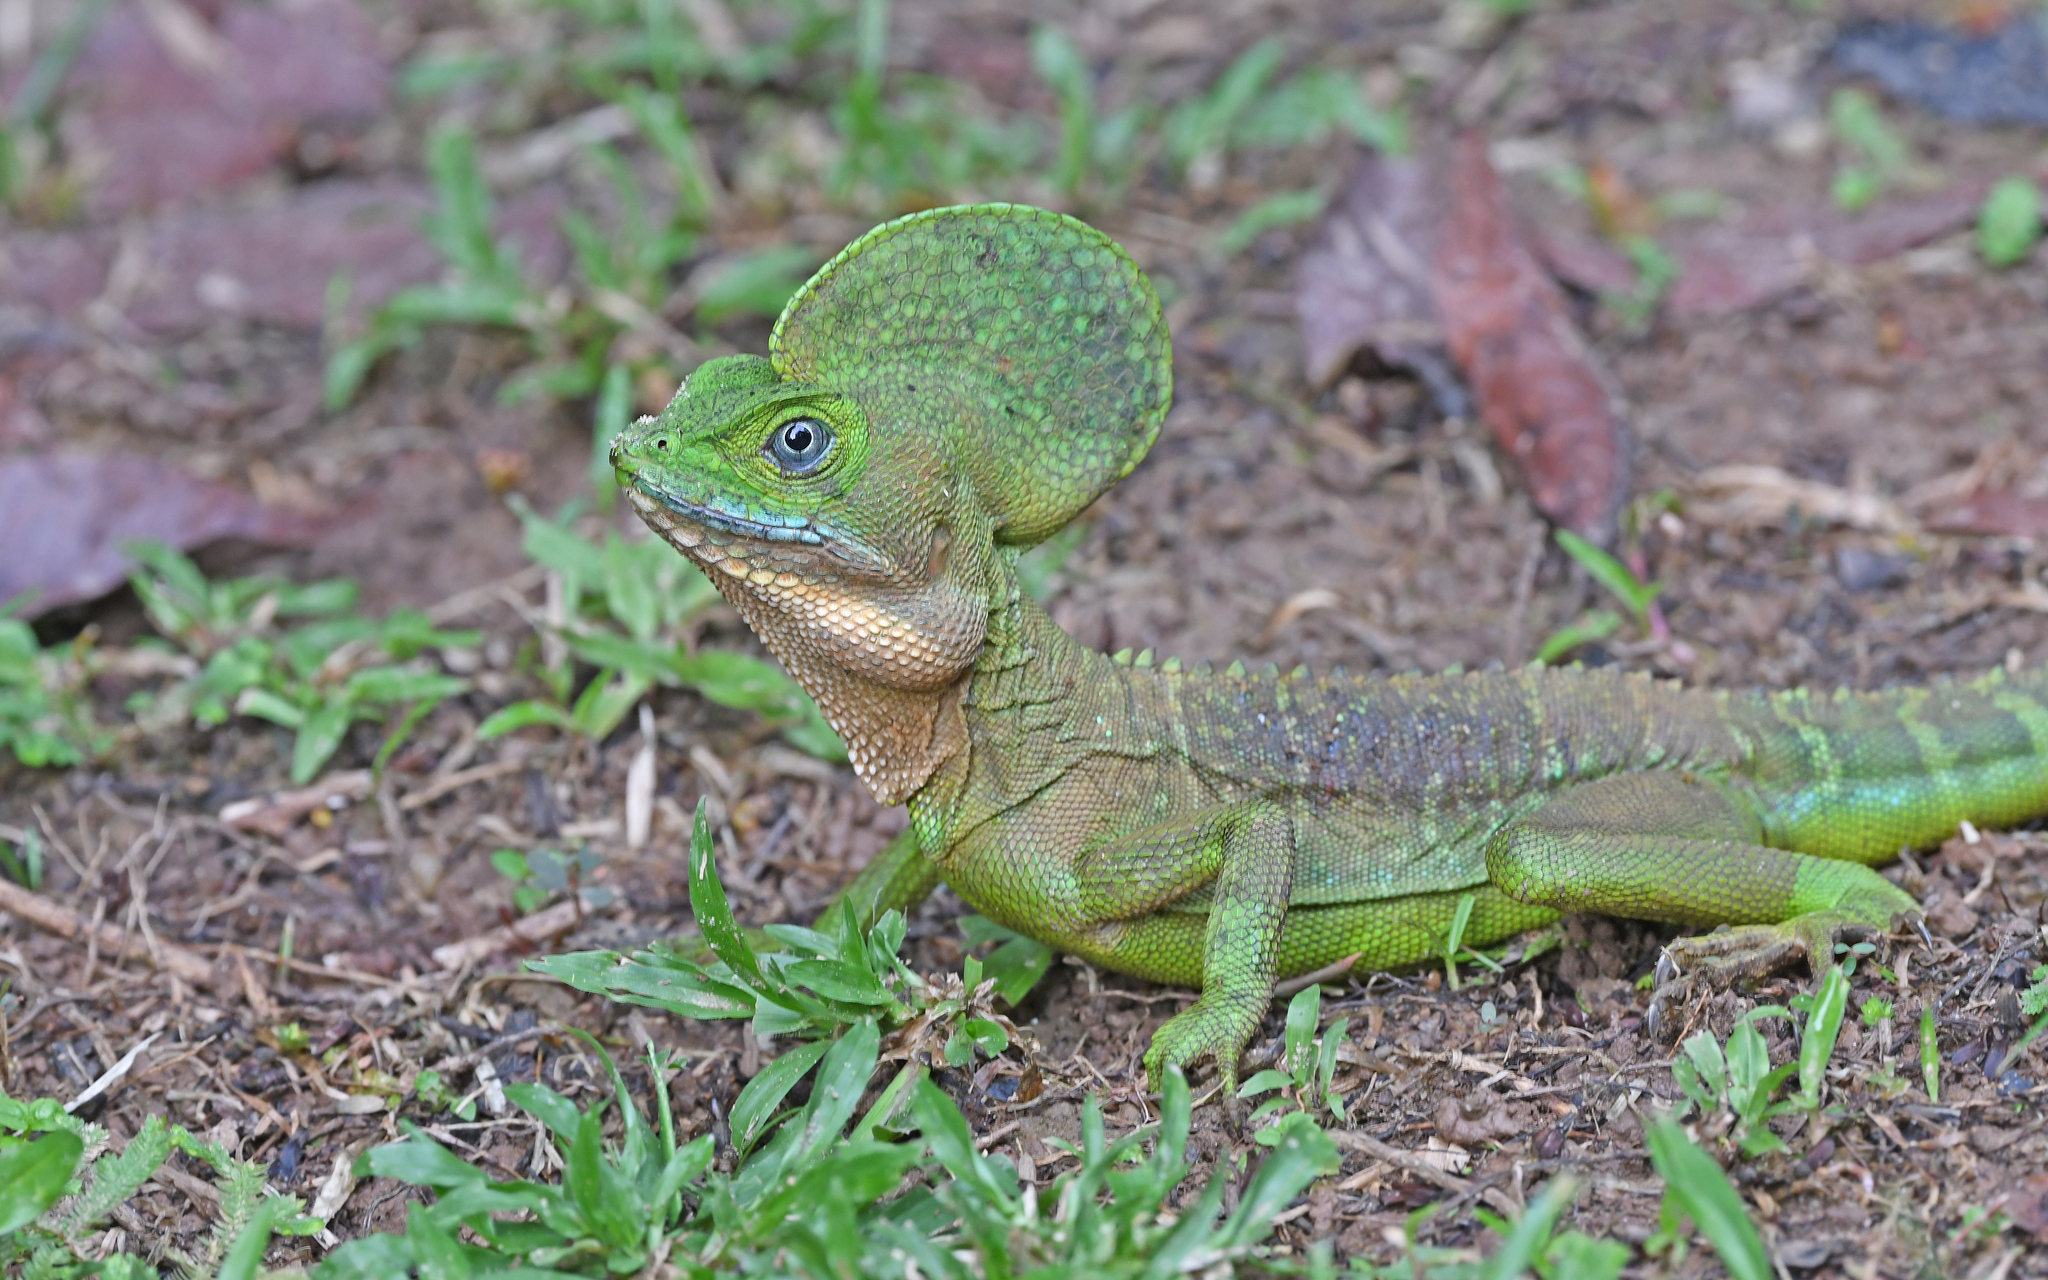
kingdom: Animalia
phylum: Chordata
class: Squamata
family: Corytophanidae
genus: Basiliscus
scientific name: Basiliscus galeritus
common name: Western basilisk
